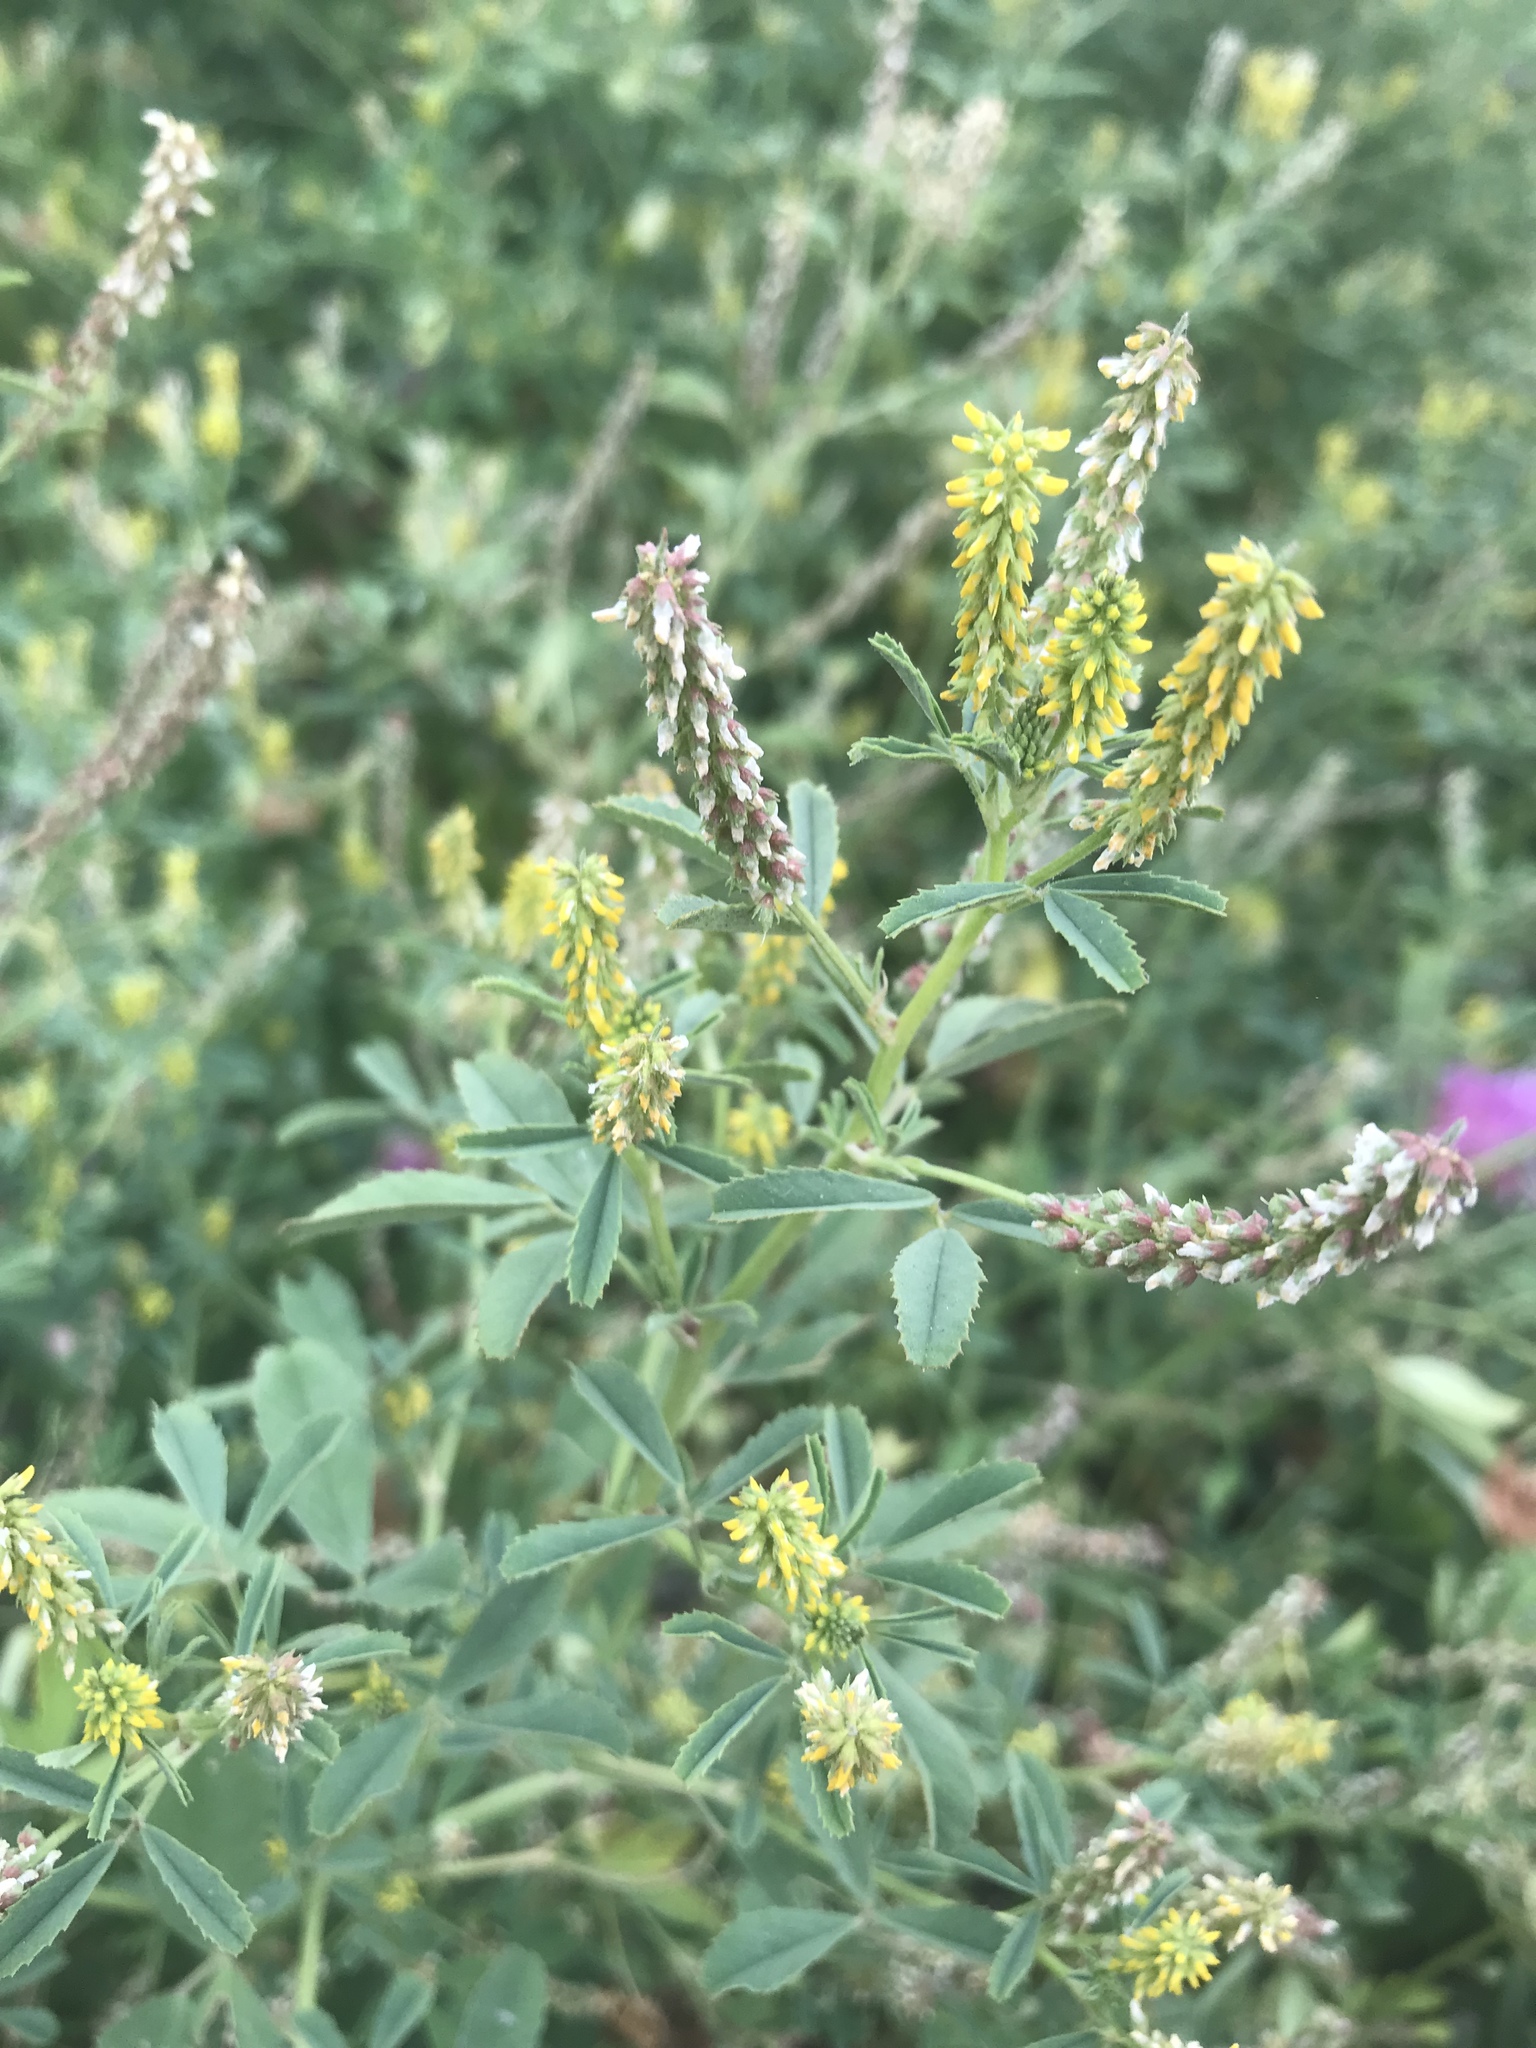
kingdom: Plantae
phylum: Tracheophyta
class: Magnoliopsida
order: Fabales
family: Fabaceae
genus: Melilotus
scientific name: Melilotus indicus
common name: Small melilot
